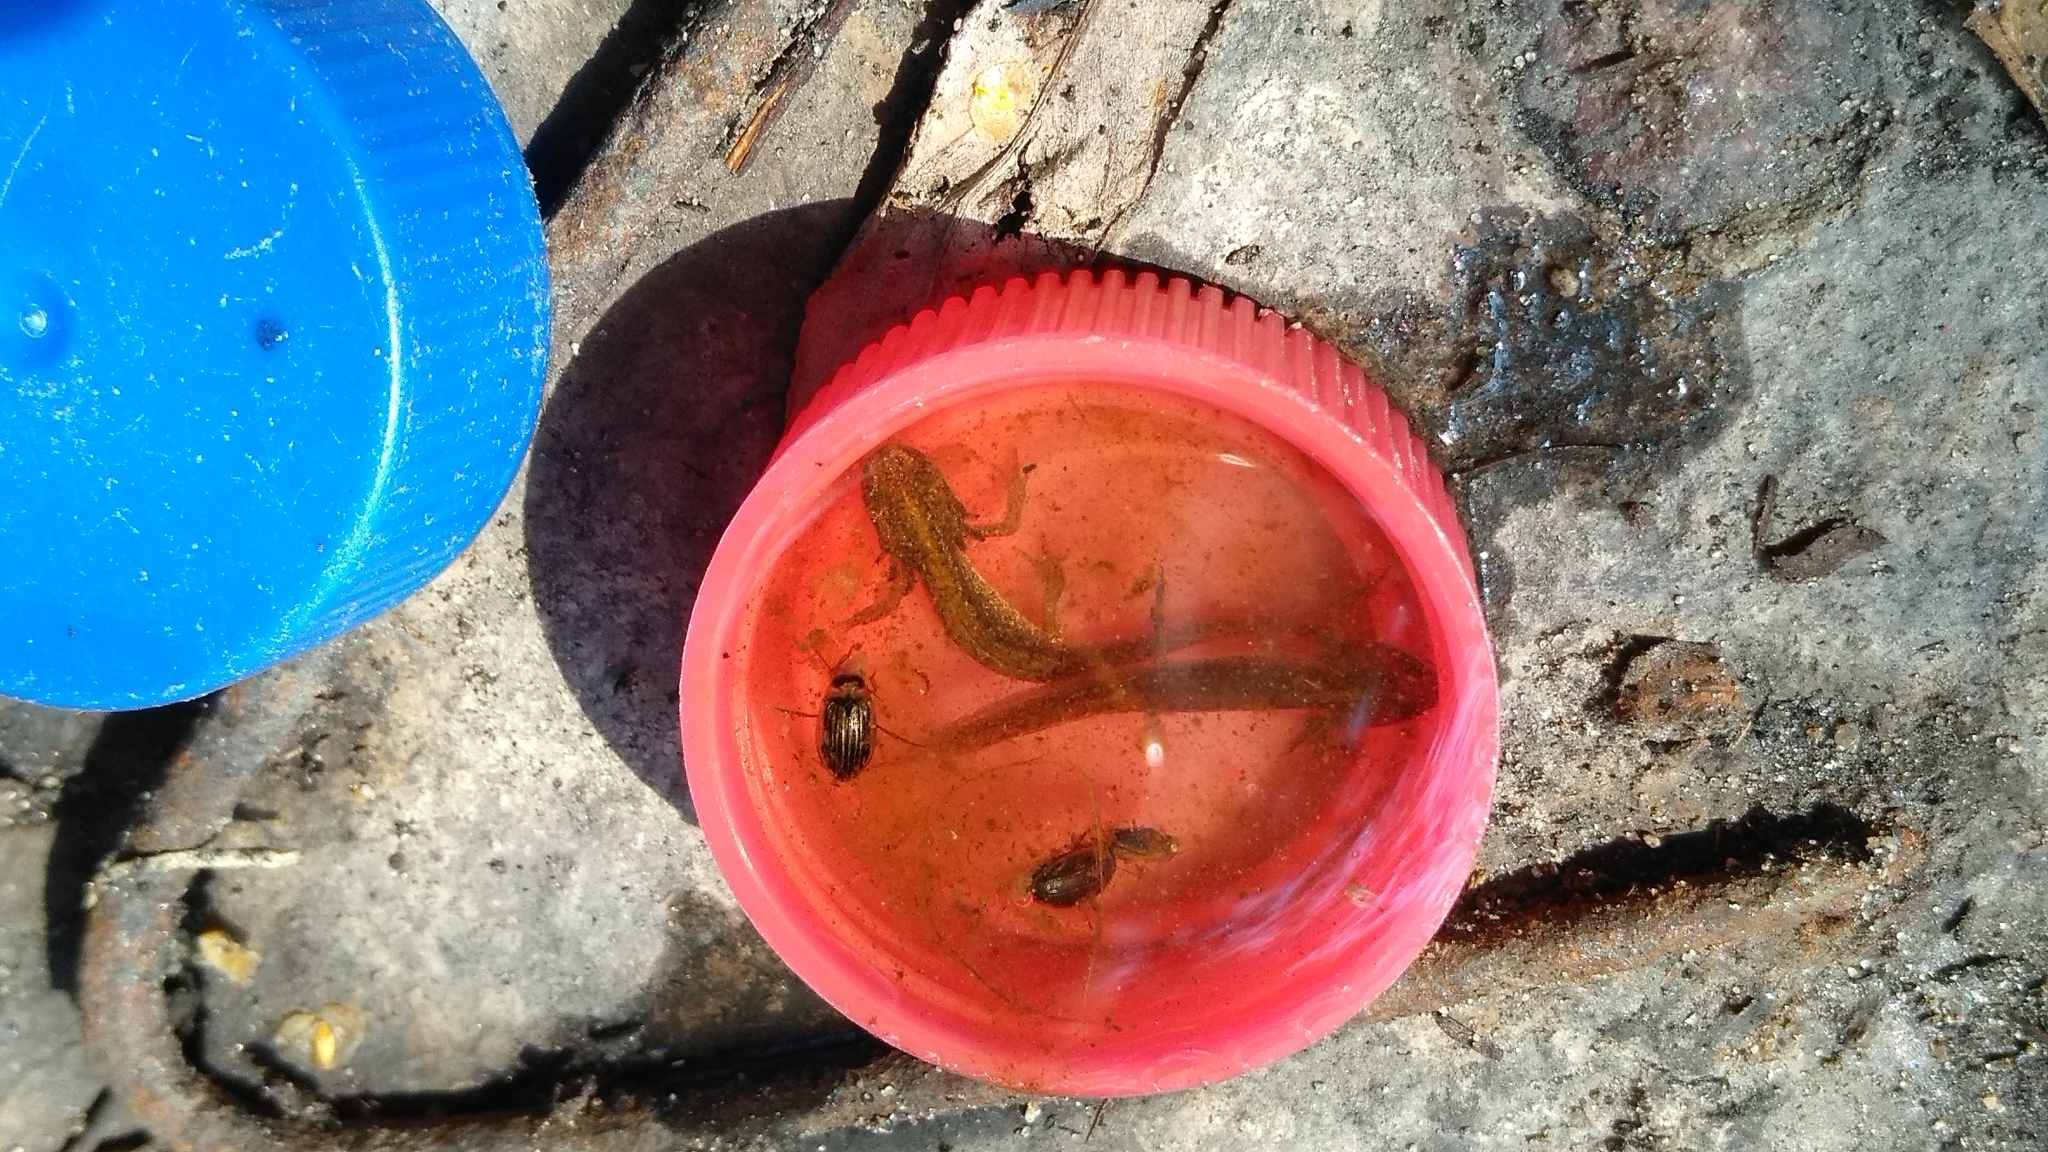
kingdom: Animalia
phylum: Chordata
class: Amphibia
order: Caudata
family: Salamandridae
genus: Lissotriton
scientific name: Lissotriton vulgaris
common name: Smooth newt
